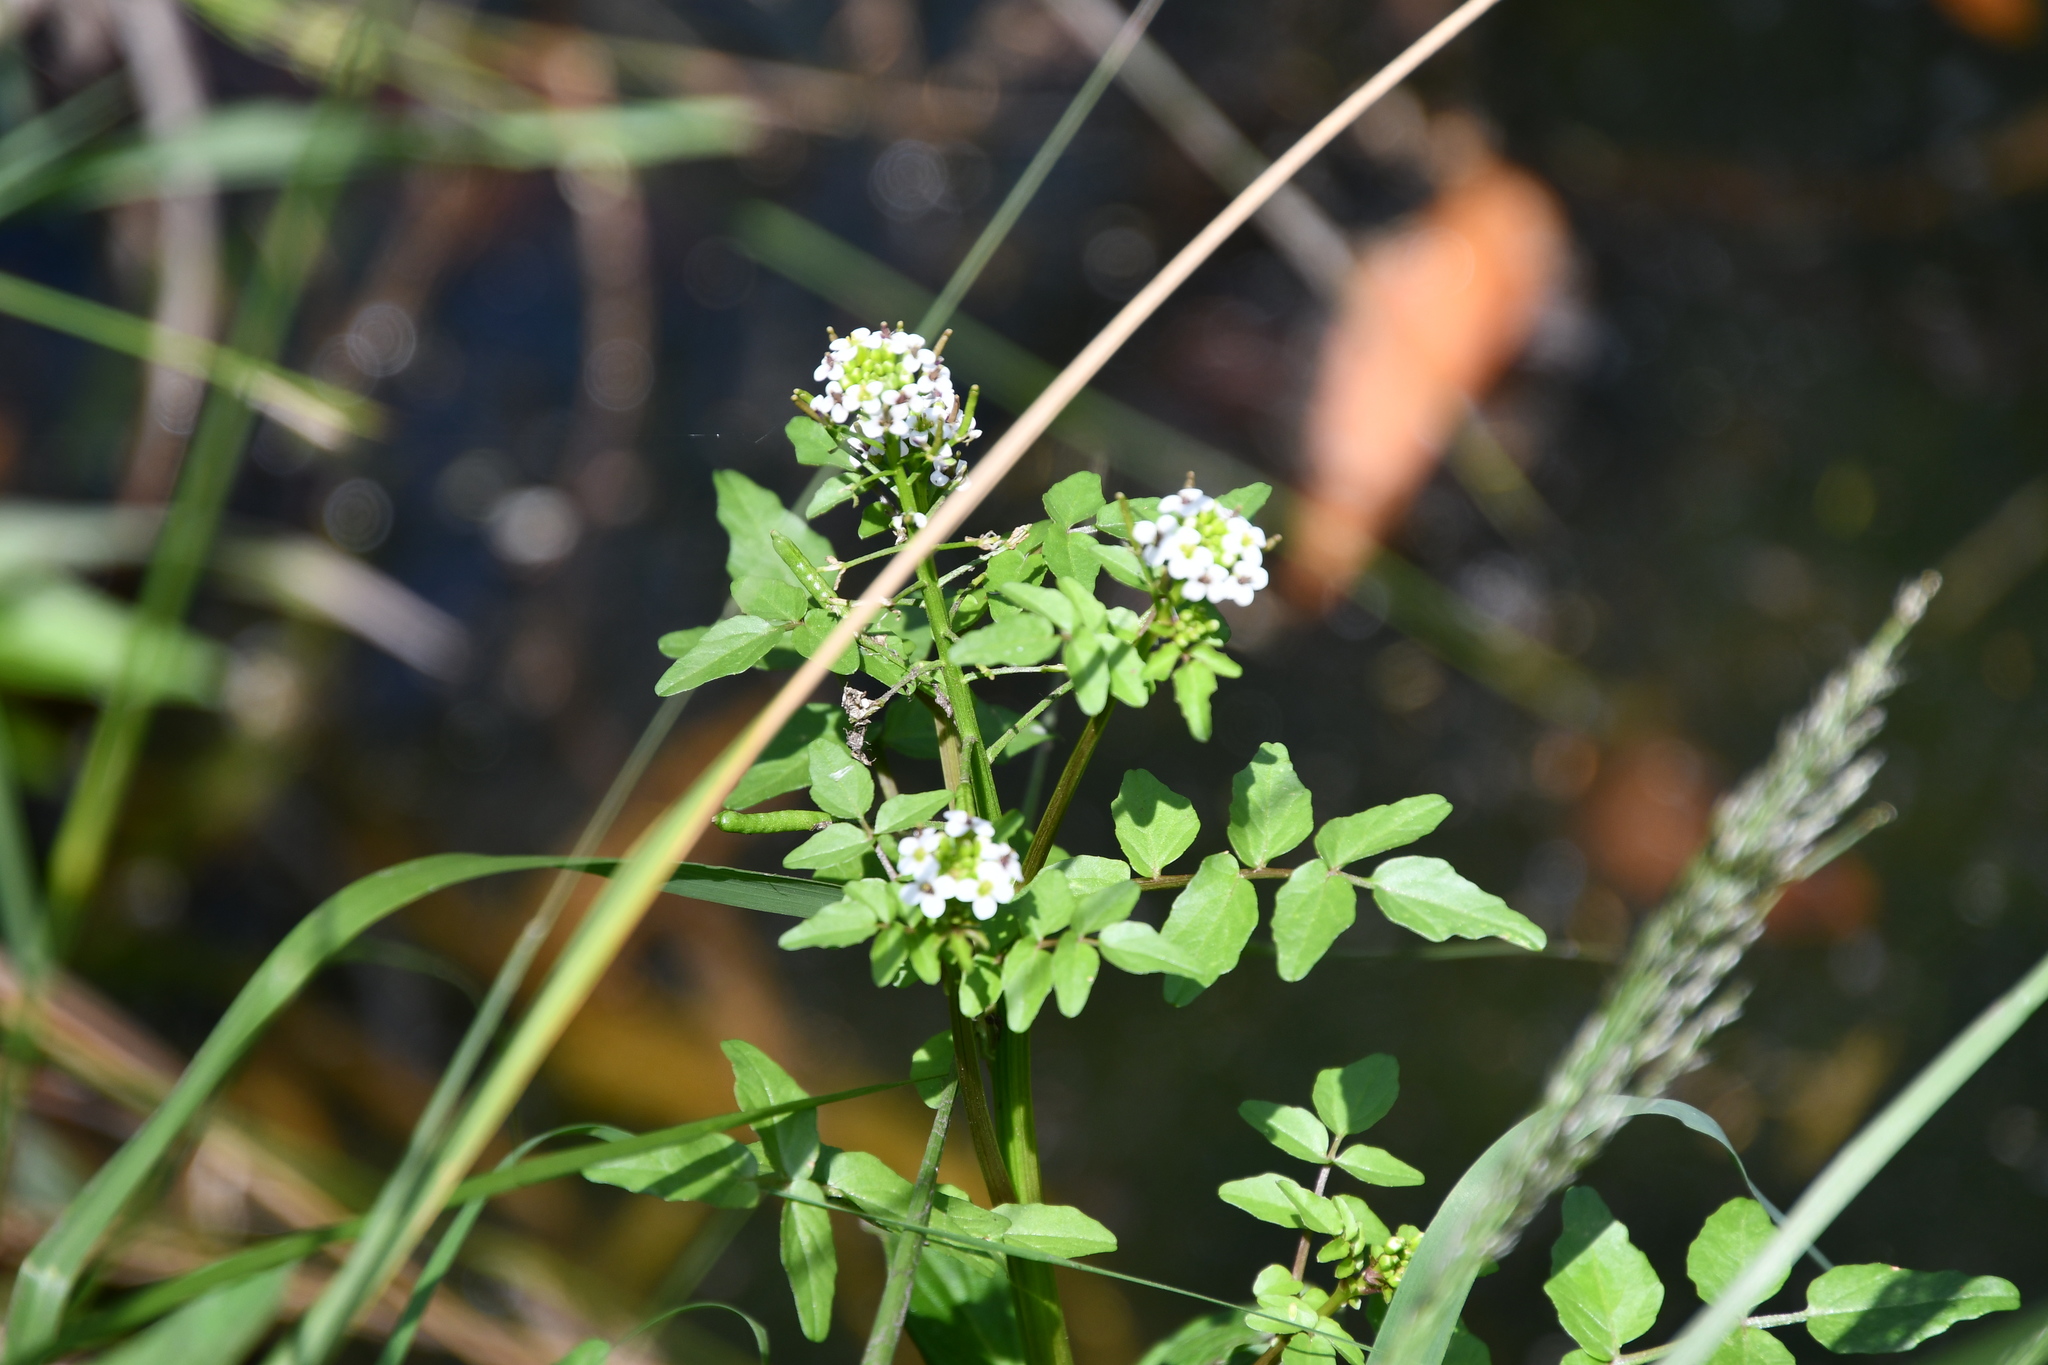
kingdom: Plantae
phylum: Tracheophyta
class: Magnoliopsida
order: Brassicales
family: Brassicaceae
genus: Nasturtium
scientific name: Nasturtium officinale
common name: Watercress
